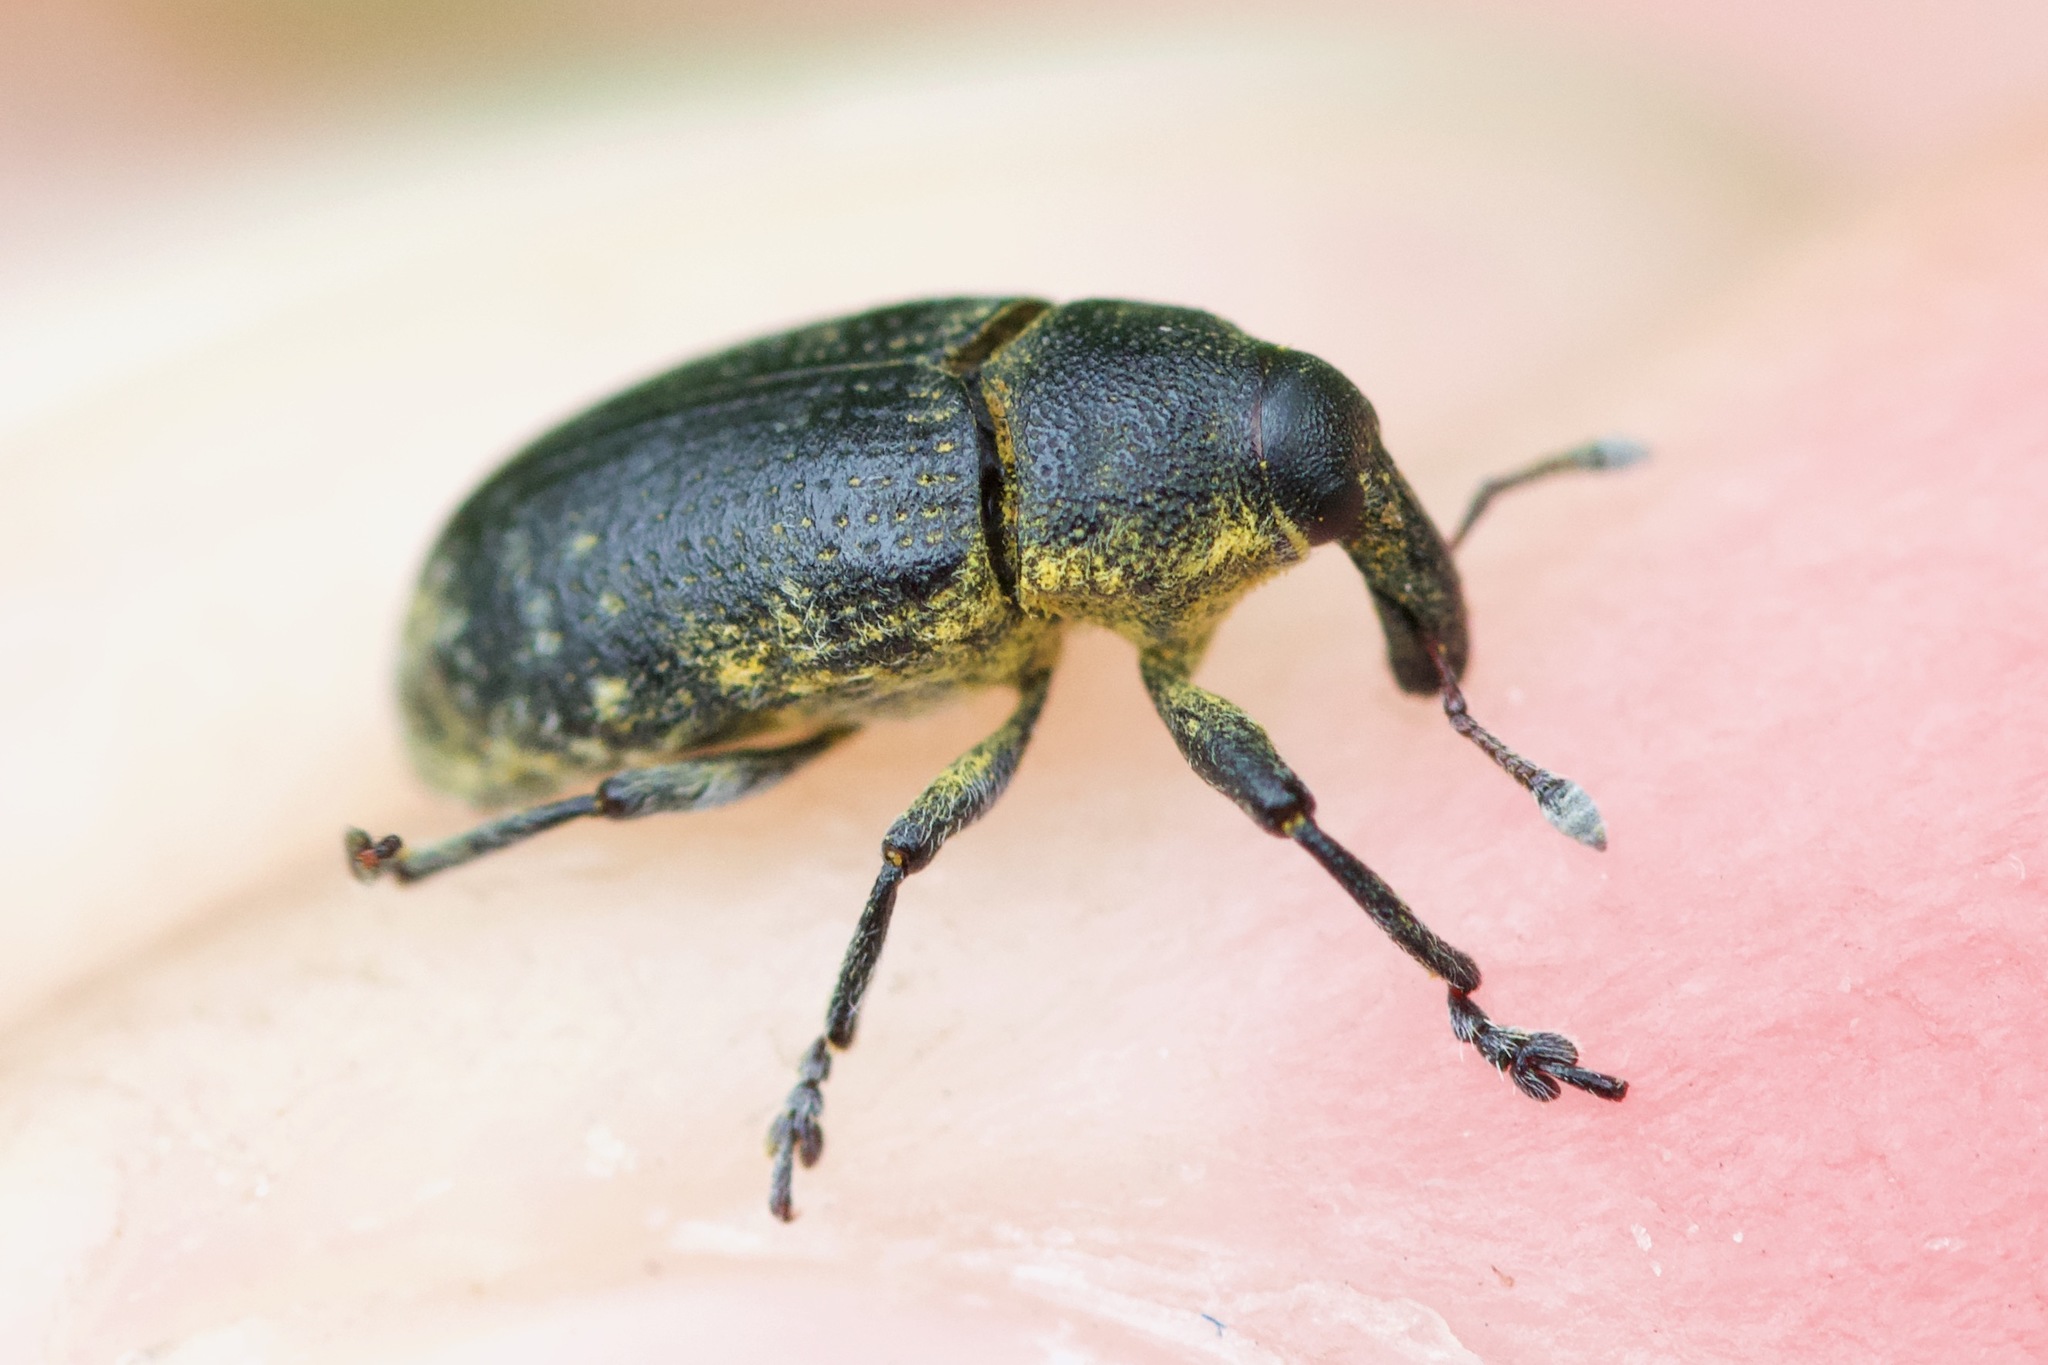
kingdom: Animalia
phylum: Arthropoda
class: Insecta
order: Coleoptera
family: Curculionidae
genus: Larinus
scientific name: Larinus carlinae
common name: Weevil
